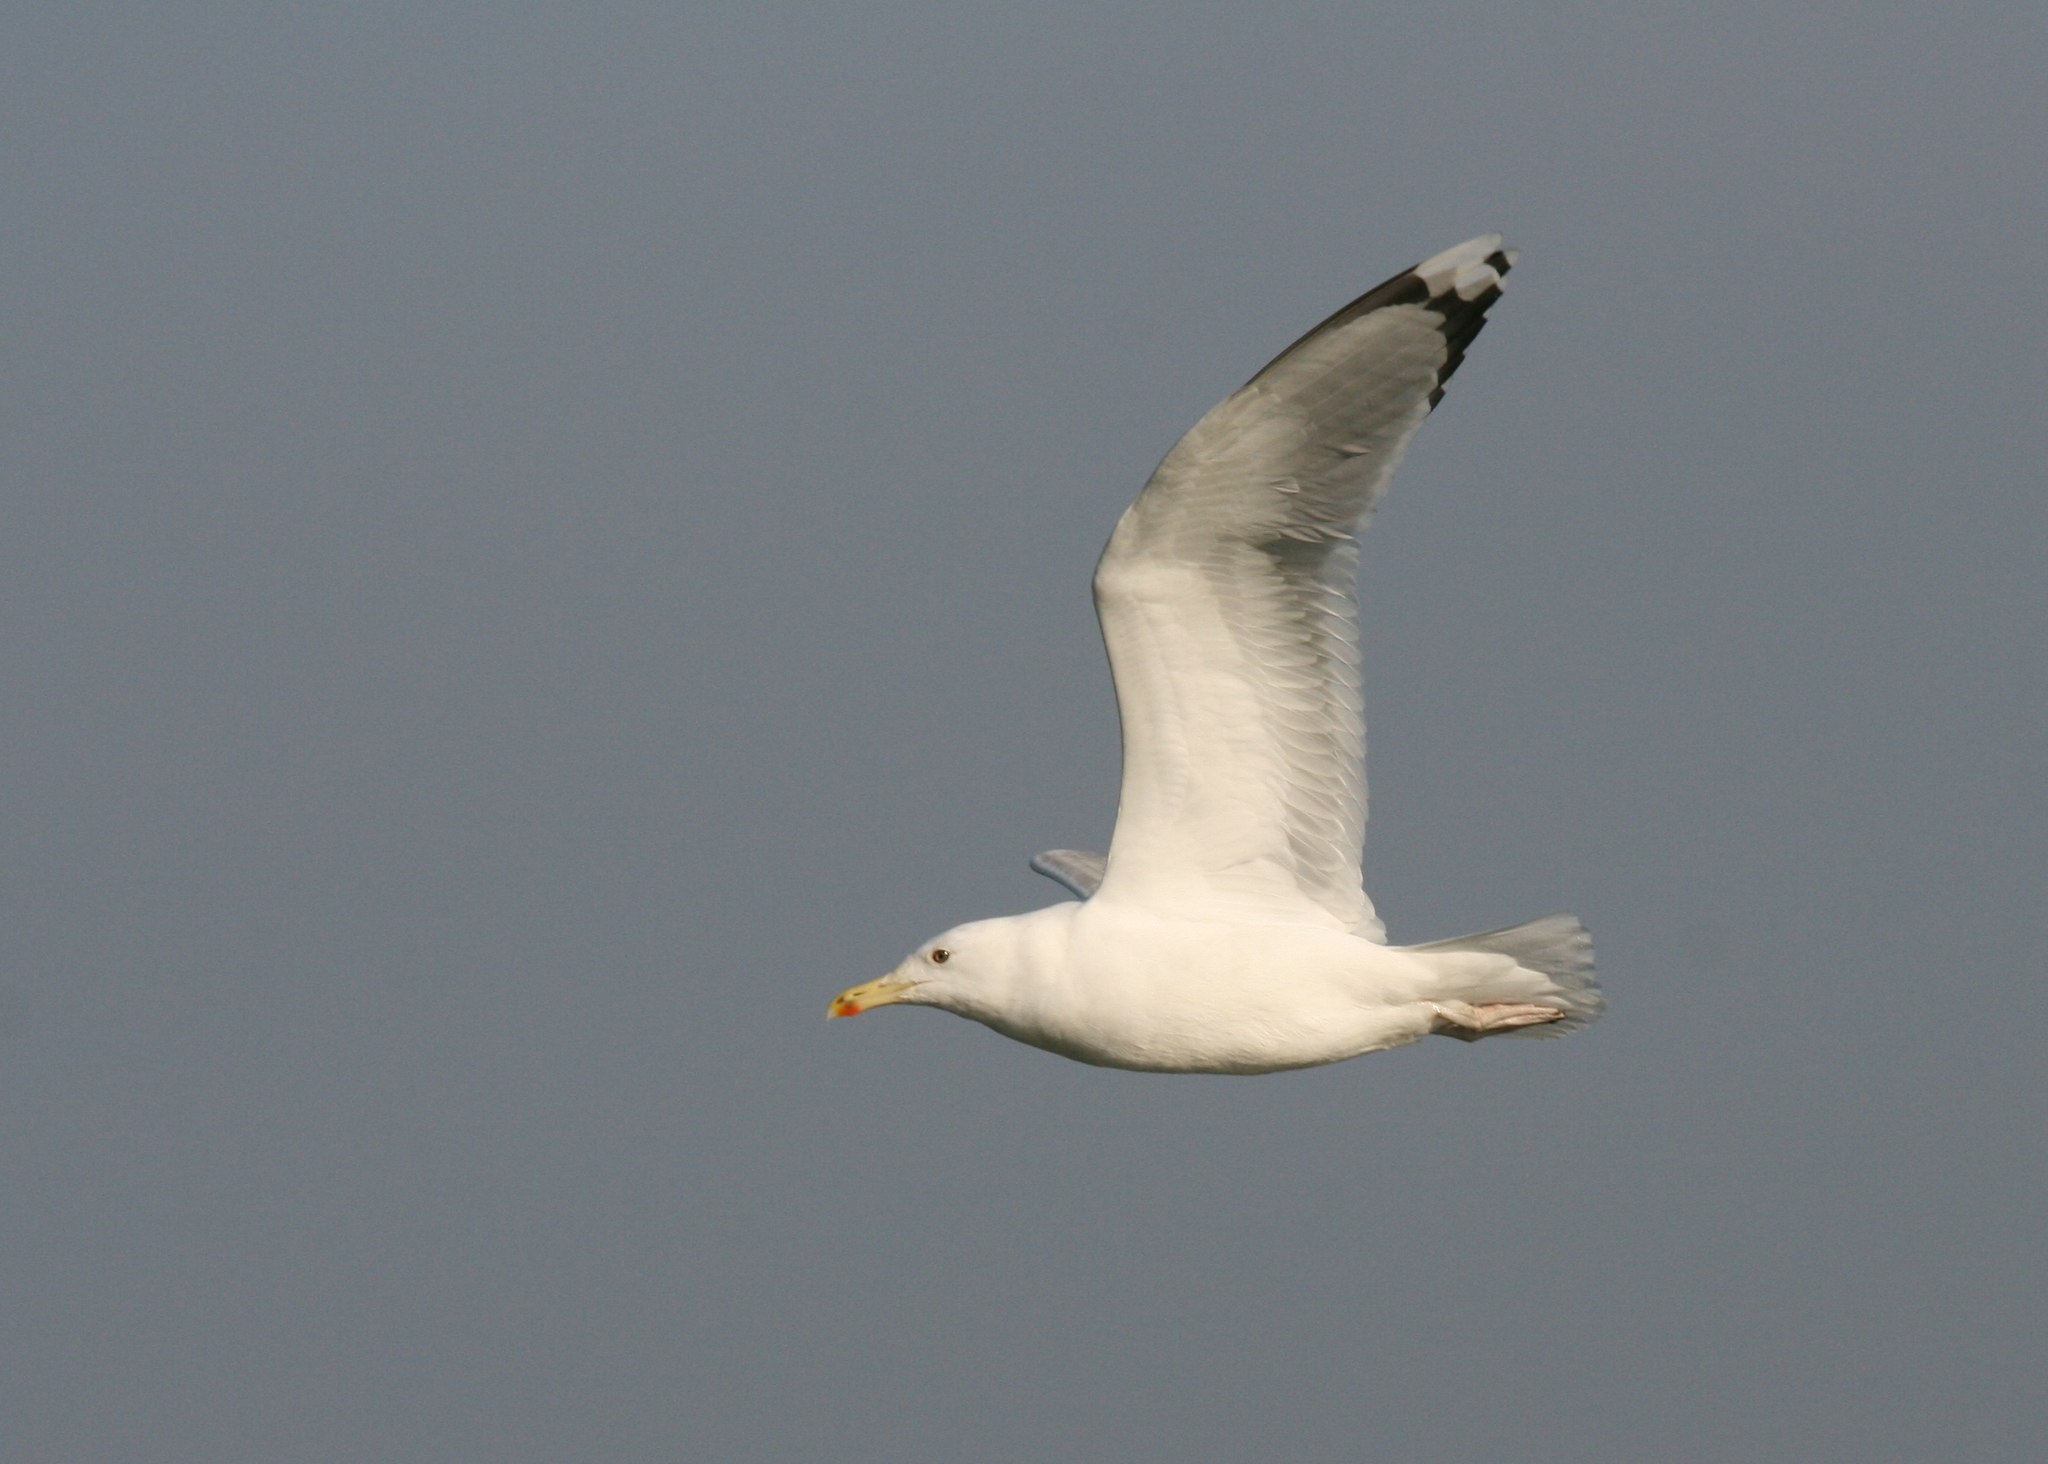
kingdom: Animalia
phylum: Chordata
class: Aves
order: Charadriiformes
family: Laridae
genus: Larus
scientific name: Larus cachinnans
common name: Caspian gull
